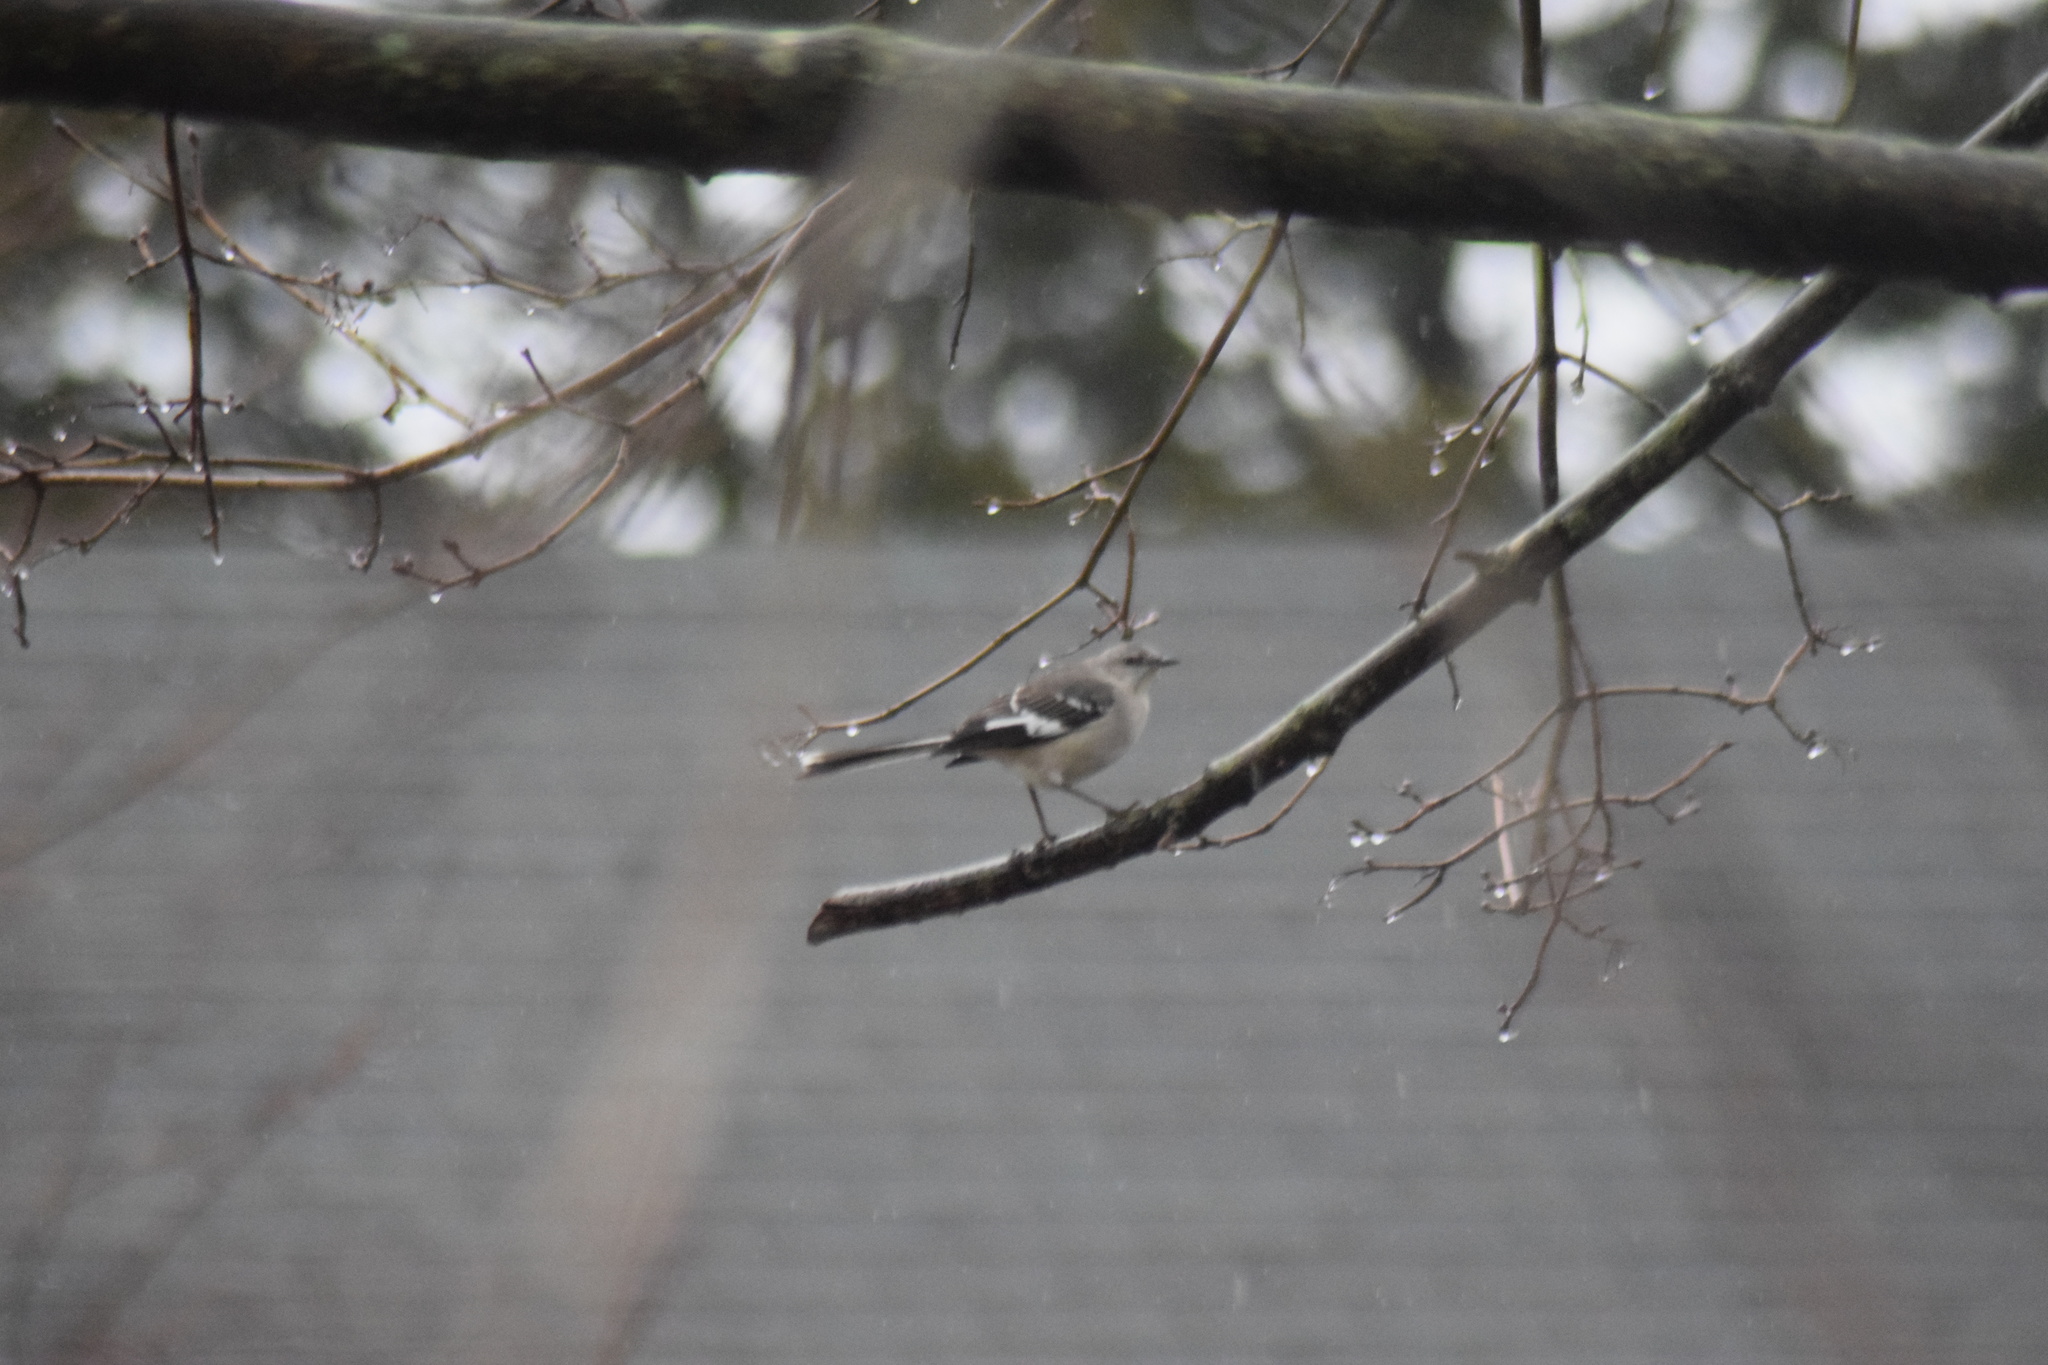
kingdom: Animalia
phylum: Chordata
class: Aves
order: Passeriformes
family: Mimidae
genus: Mimus
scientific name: Mimus polyglottos
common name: Northern mockingbird
